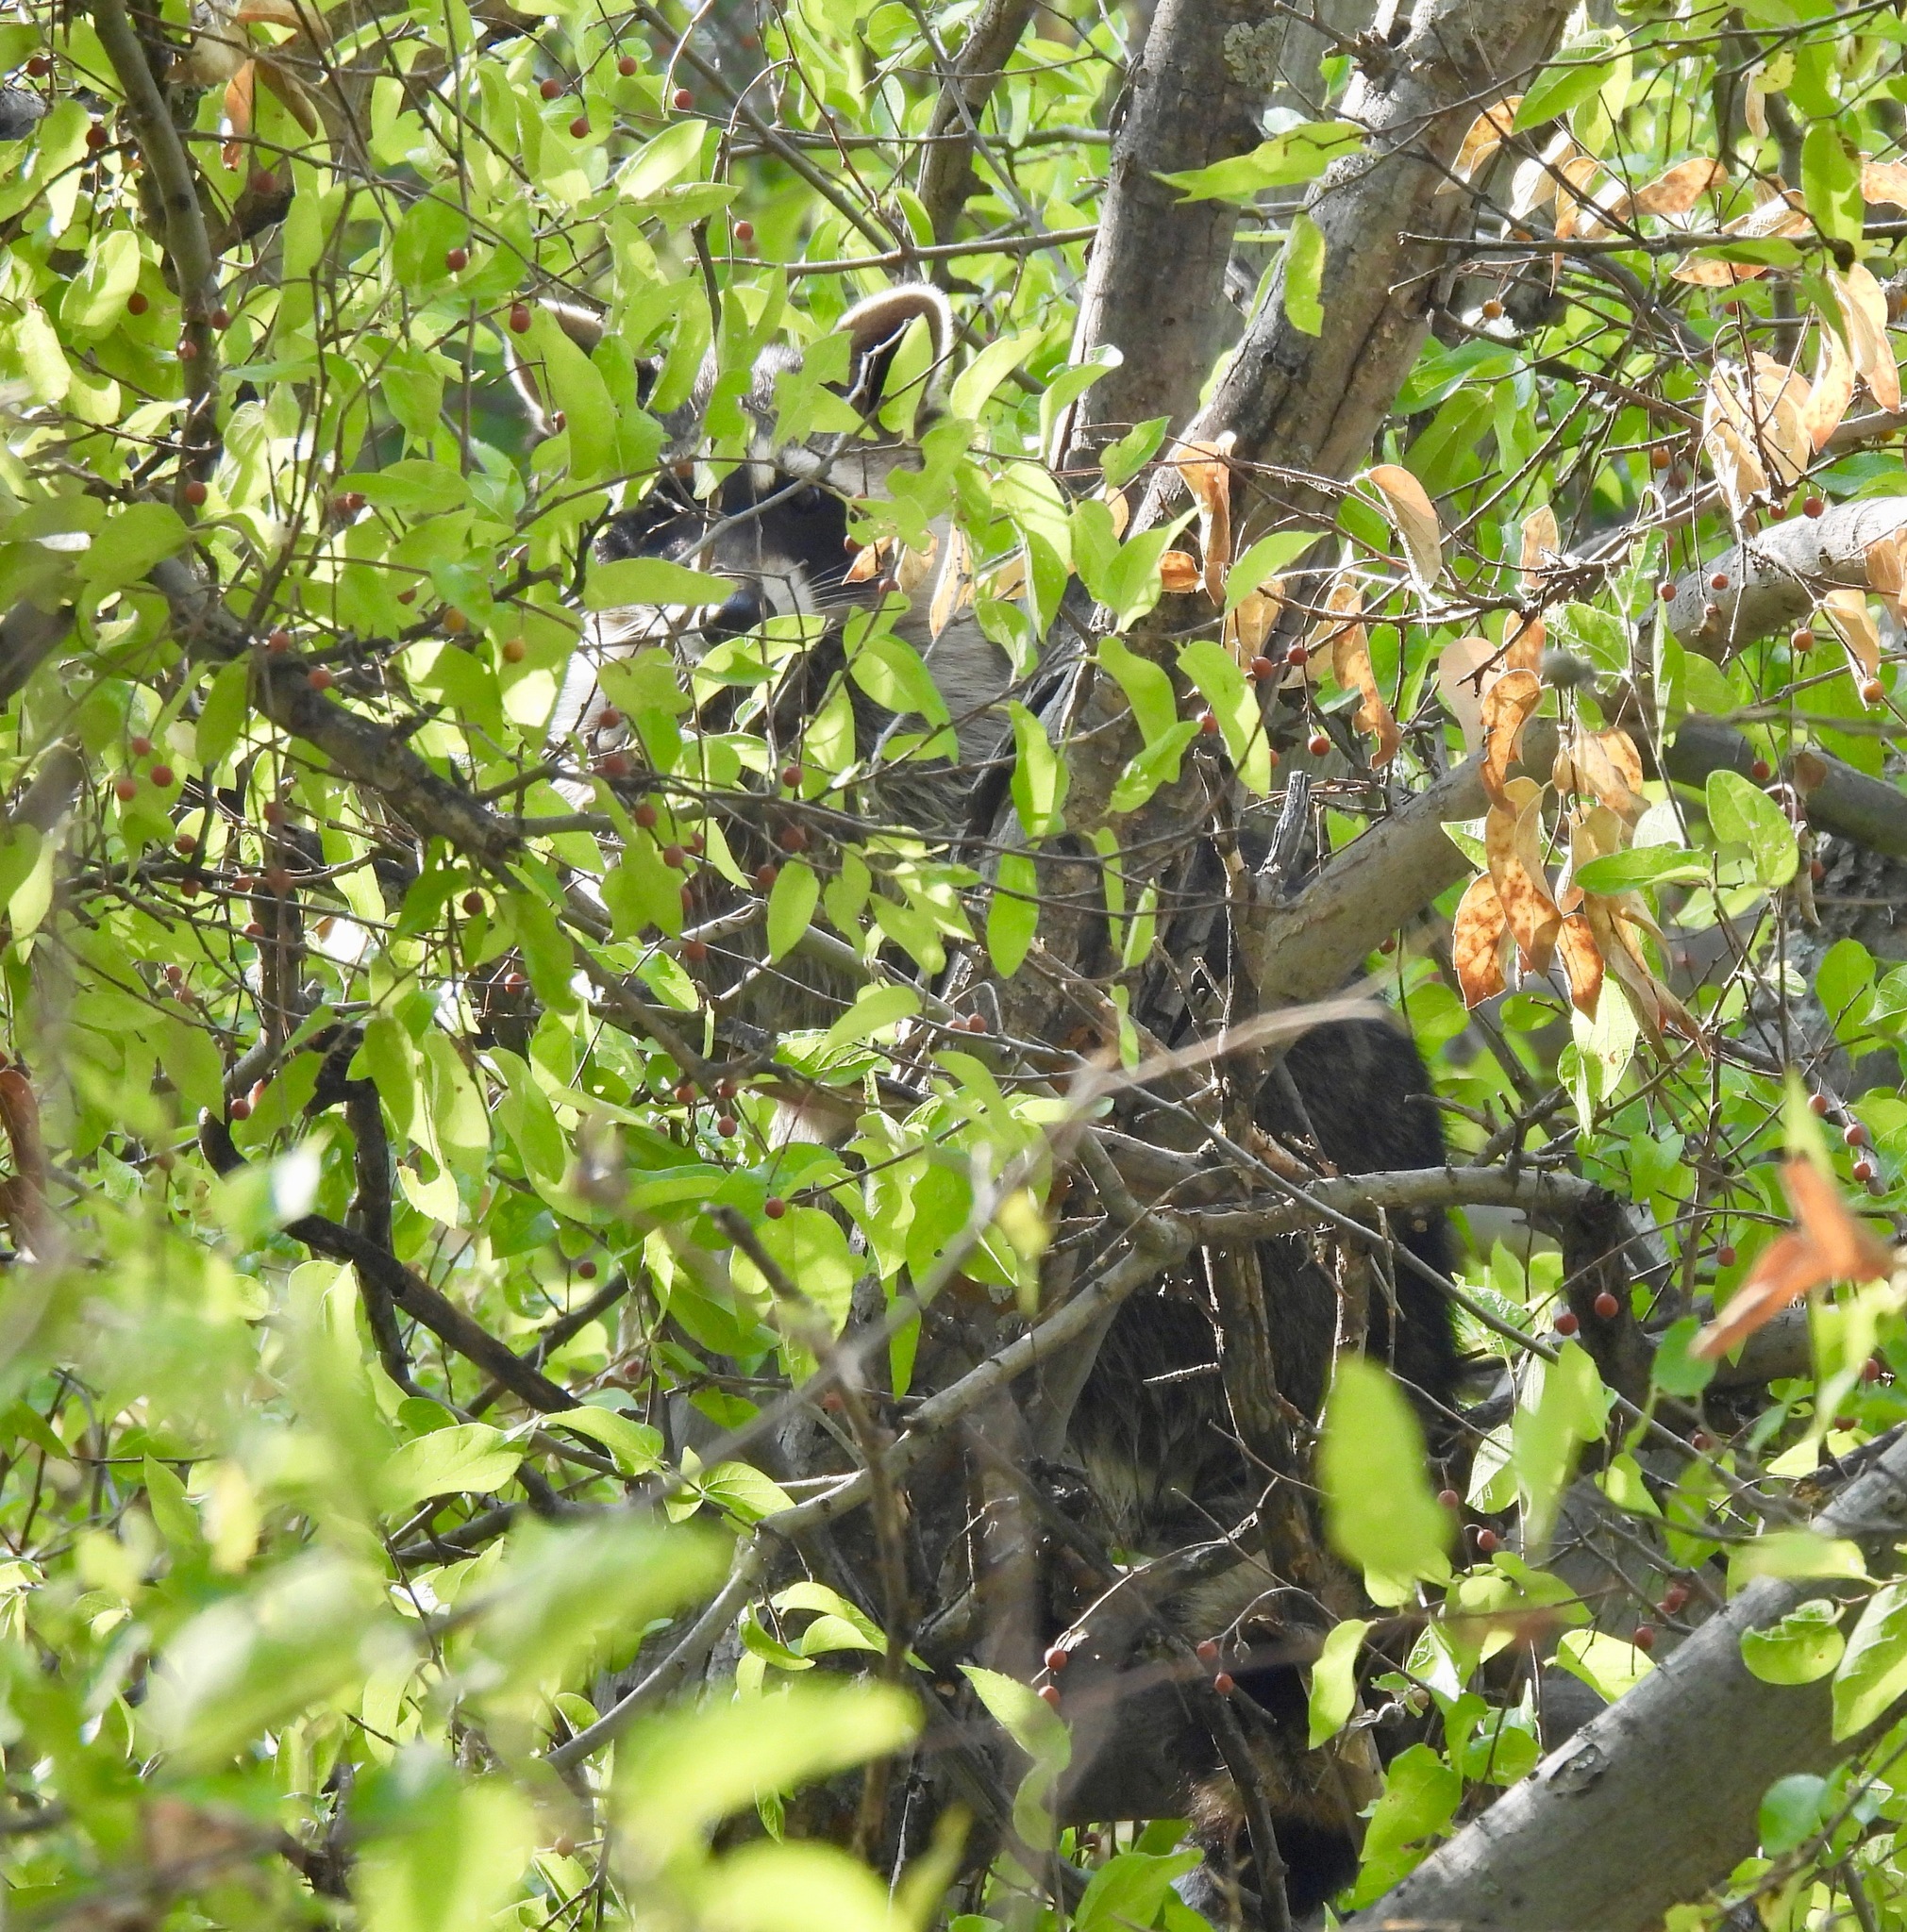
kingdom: Animalia
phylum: Chordata
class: Mammalia
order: Carnivora
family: Procyonidae
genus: Procyon
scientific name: Procyon lotor
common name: Raccoon
